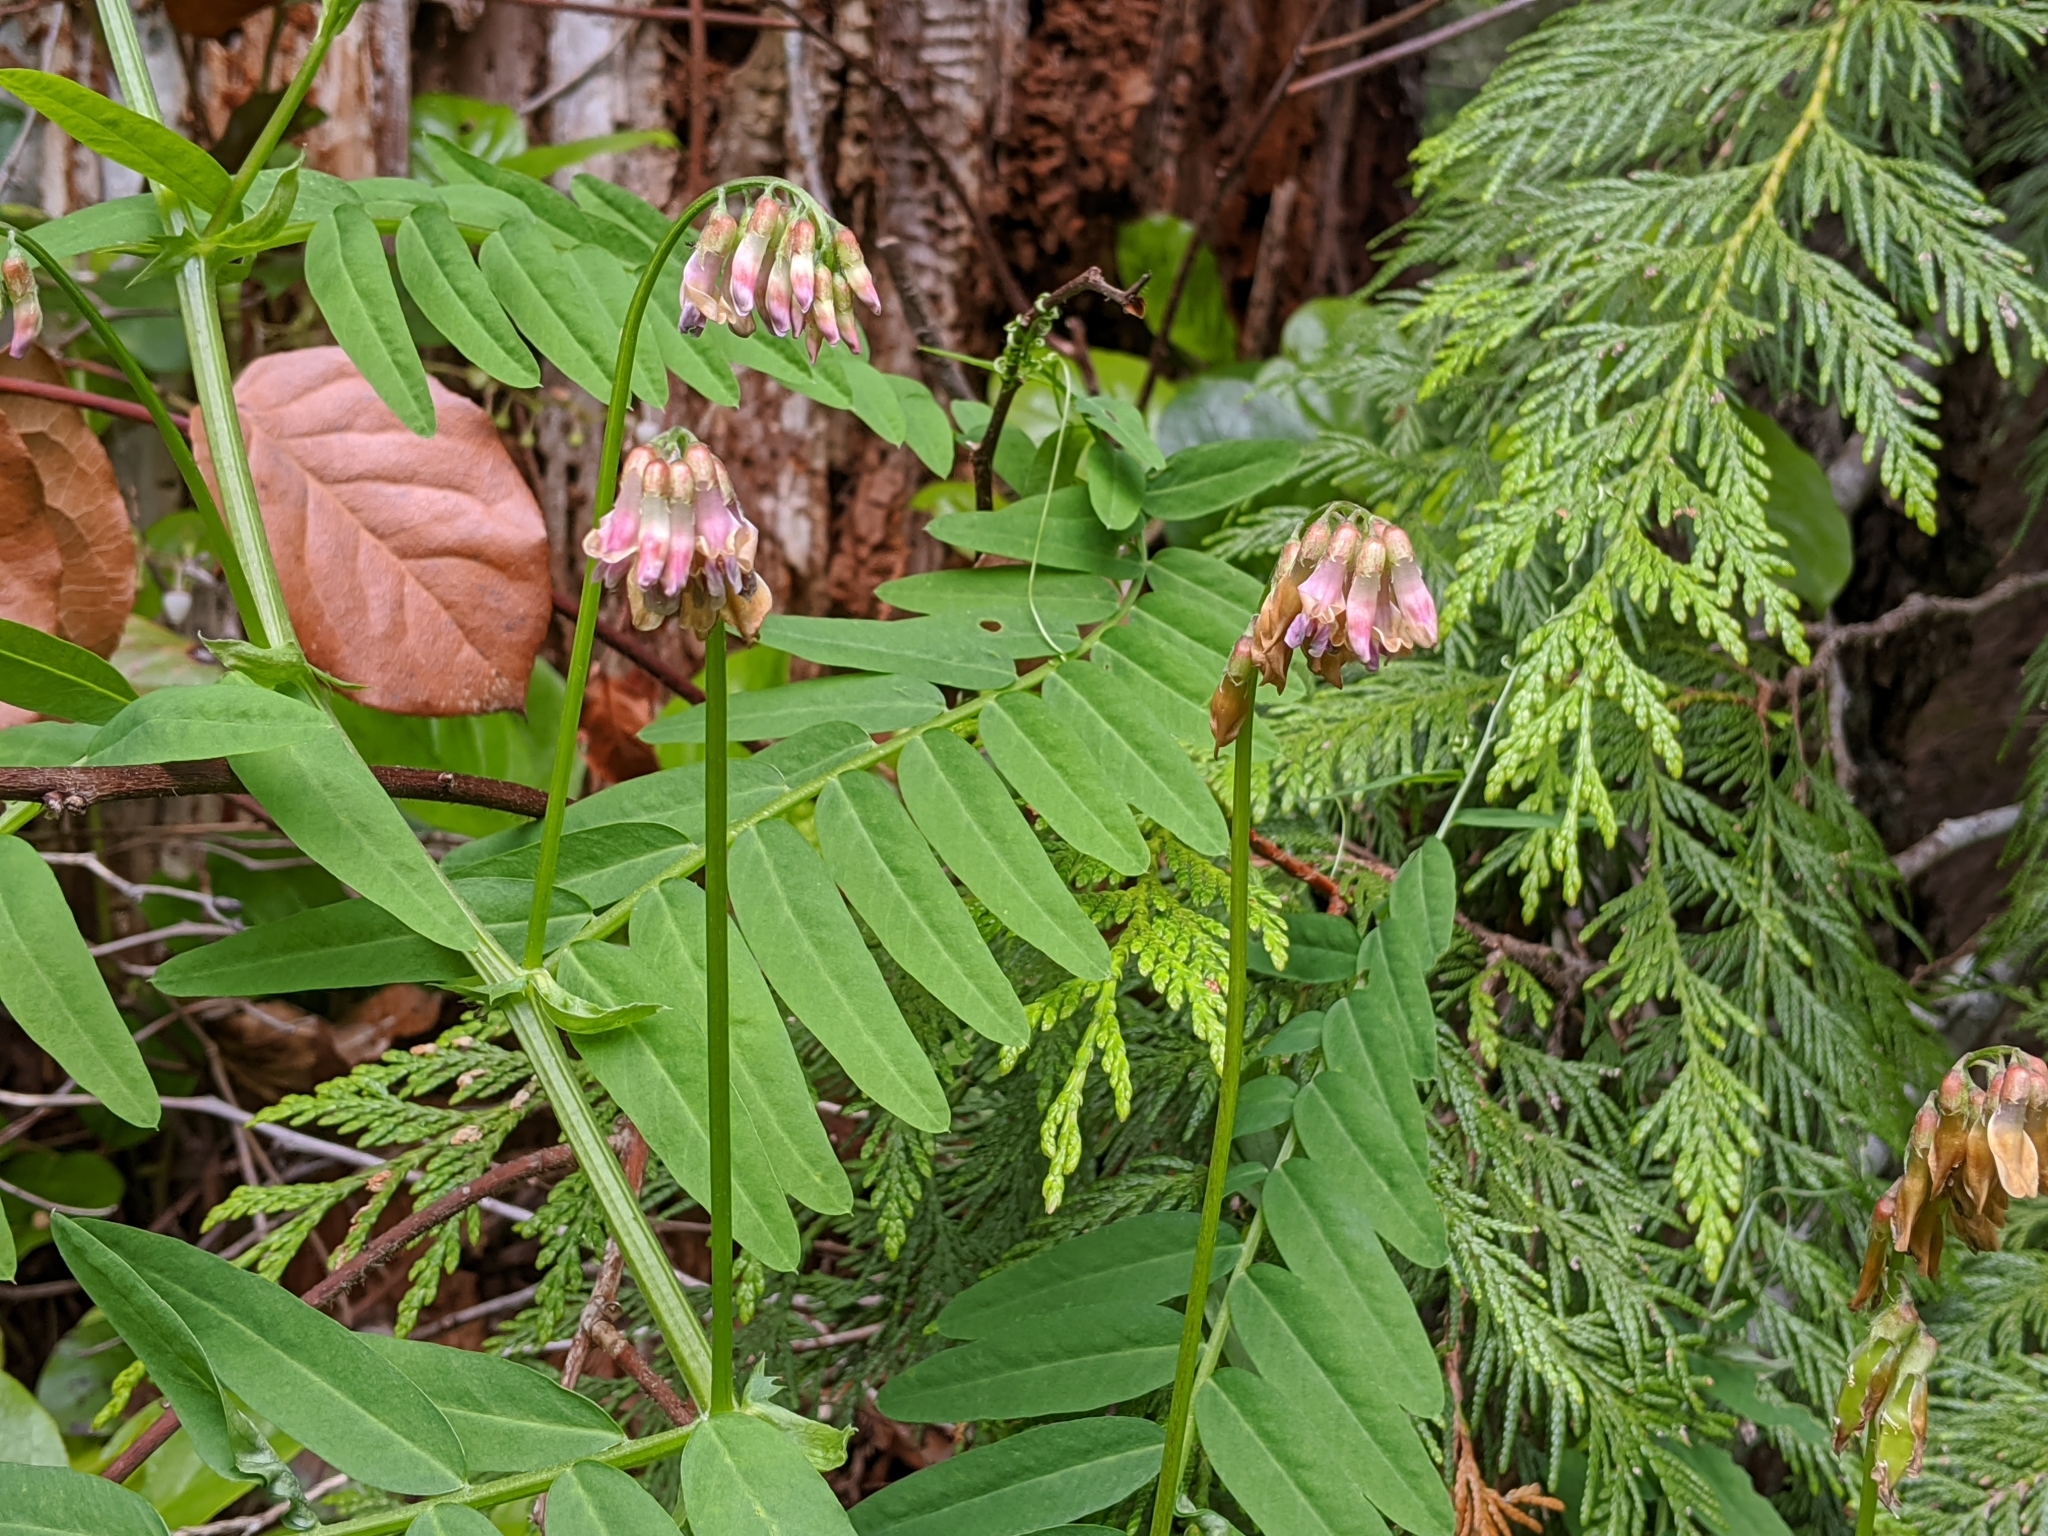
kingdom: Plantae
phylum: Tracheophyta
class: Magnoliopsida
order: Fabales
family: Fabaceae
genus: Vicia
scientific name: Vicia
